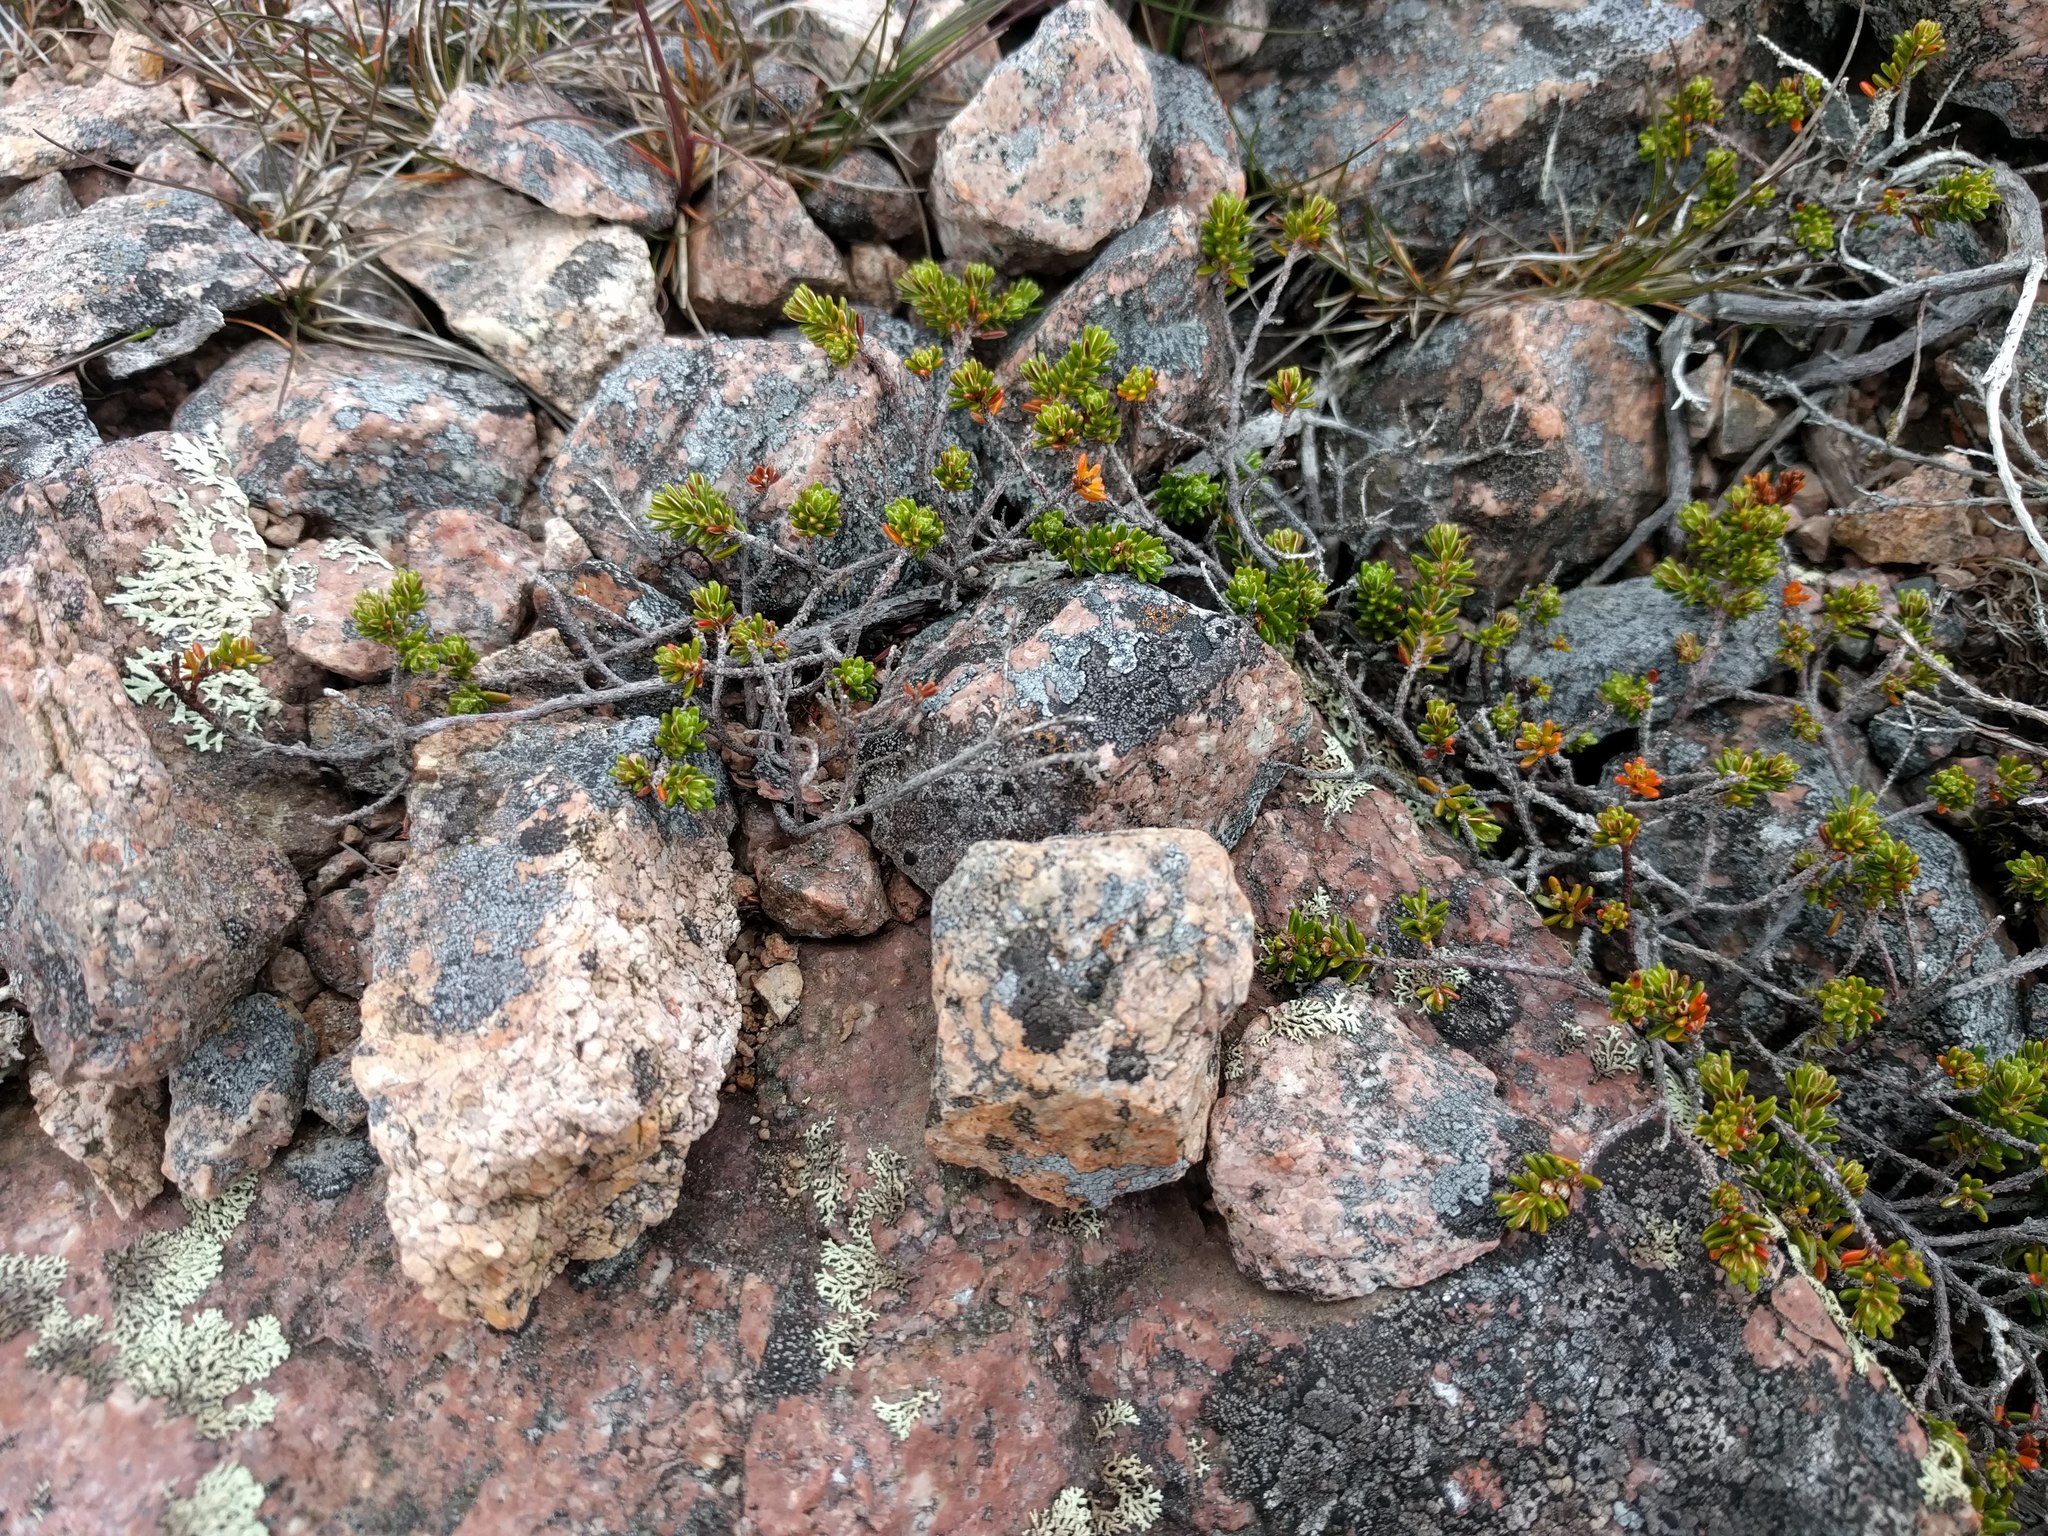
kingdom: Plantae
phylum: Tracheophyta
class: Magnoliopsida
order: Ericales
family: Ericaceae
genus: Empetrum
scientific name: Empetrum nigrum
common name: Black crowberry
